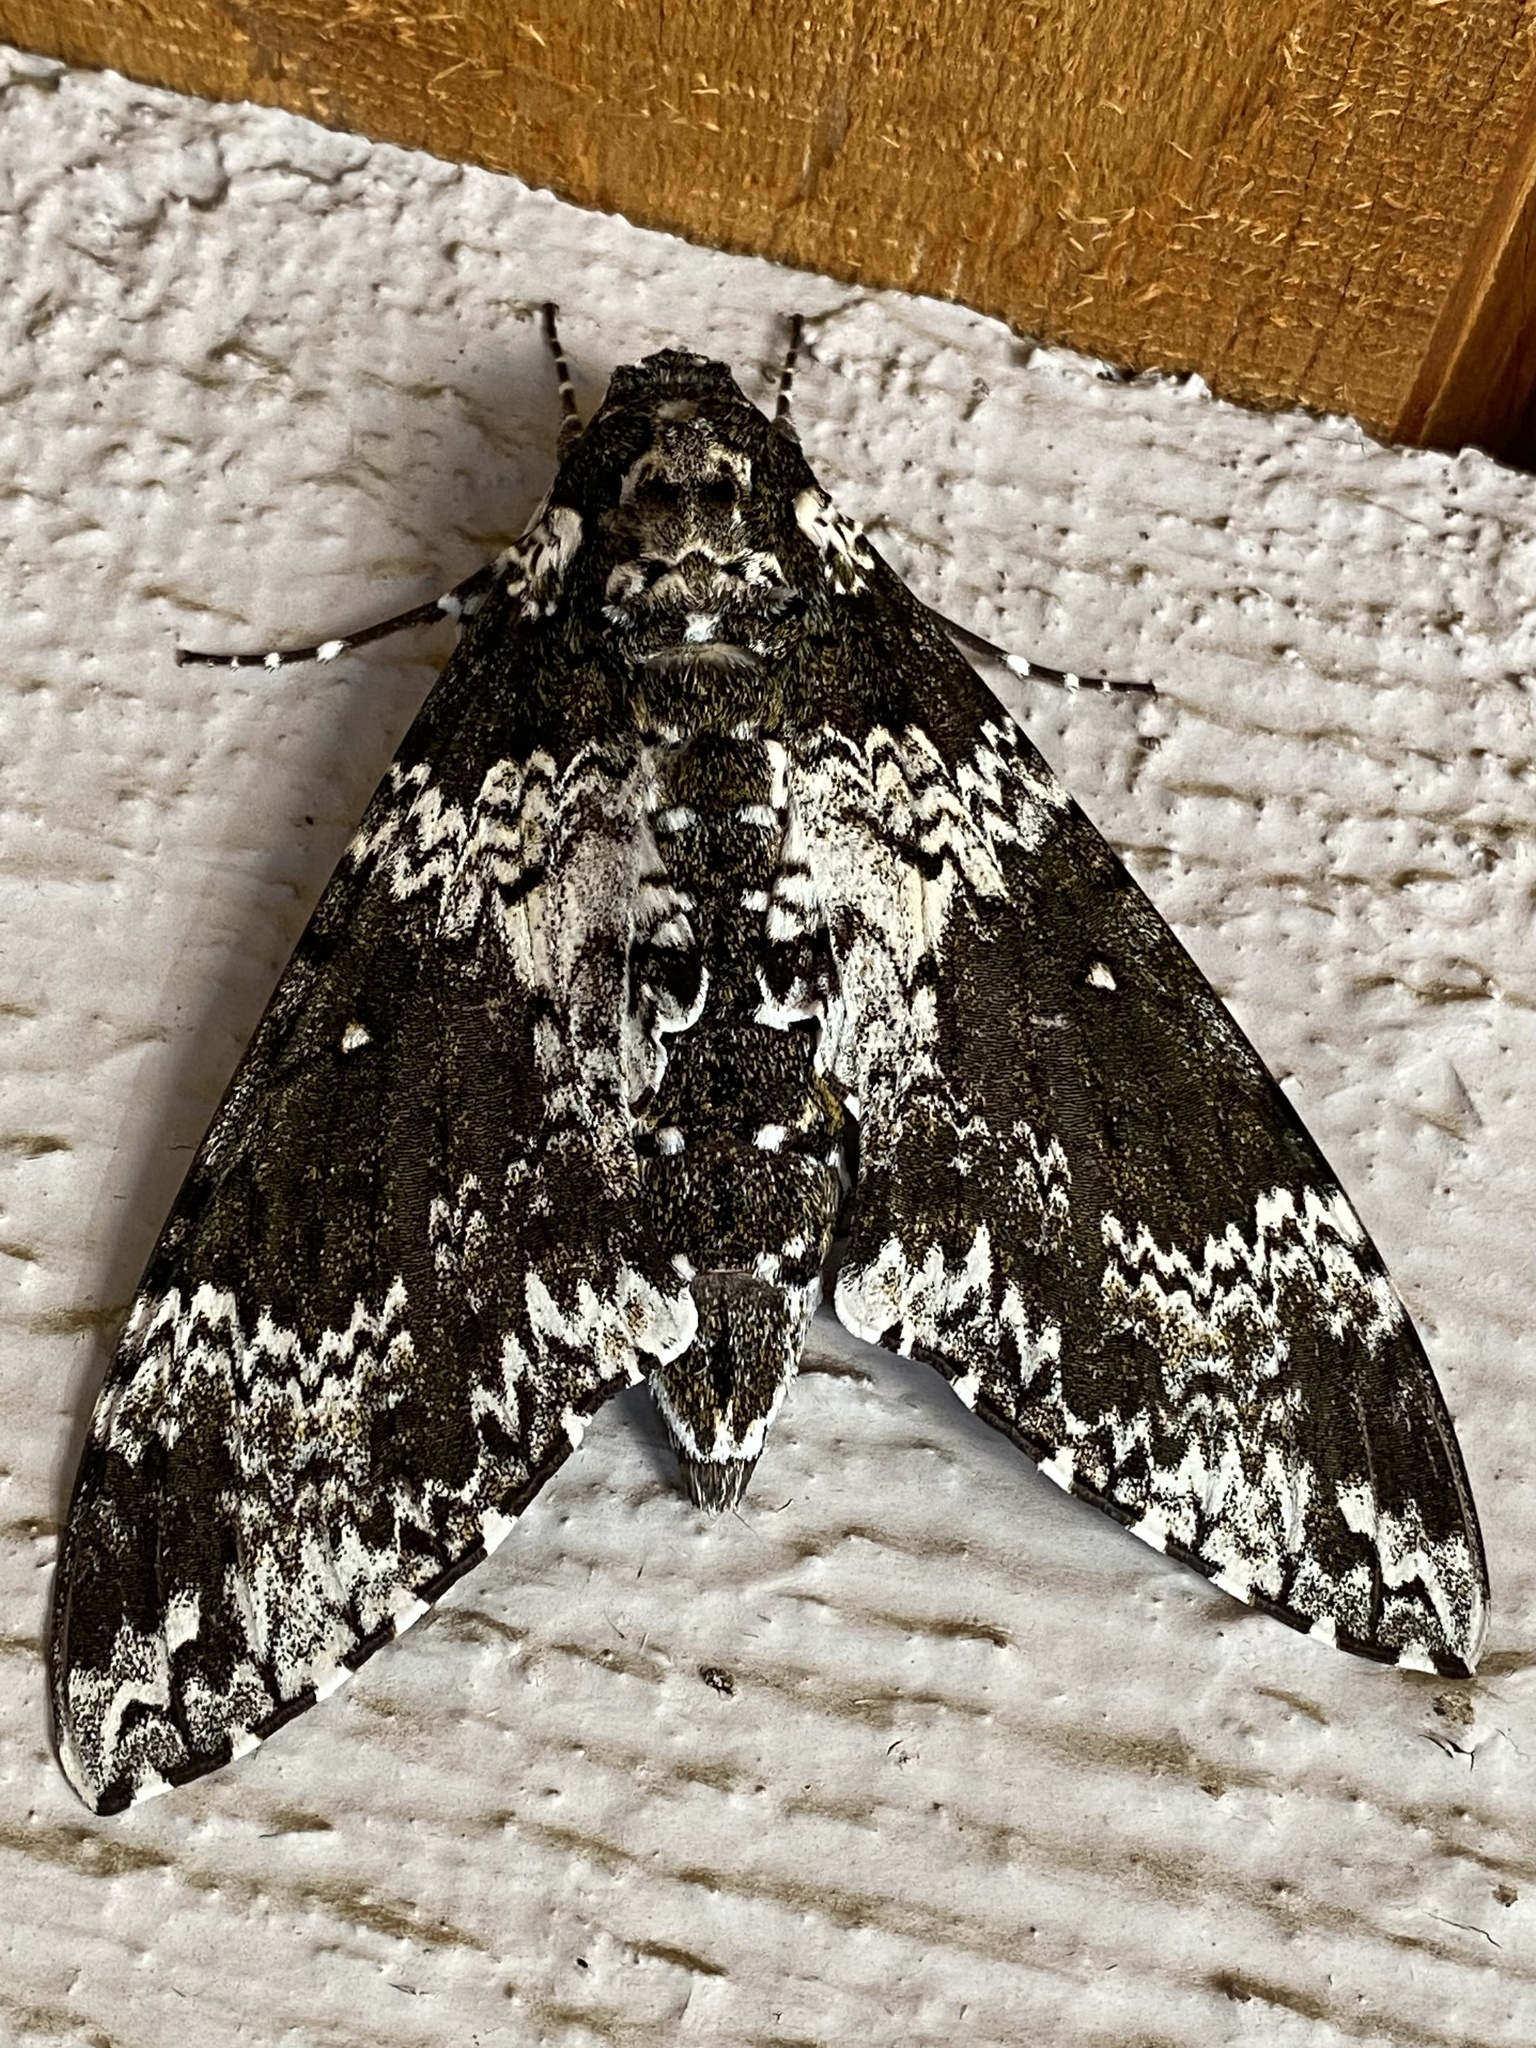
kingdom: Animalia
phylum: Arthropoda
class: Insecta
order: Lepidoptera
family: Sphingidae
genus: Manduca
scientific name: Manduca rustica
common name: Rustic sphinx
